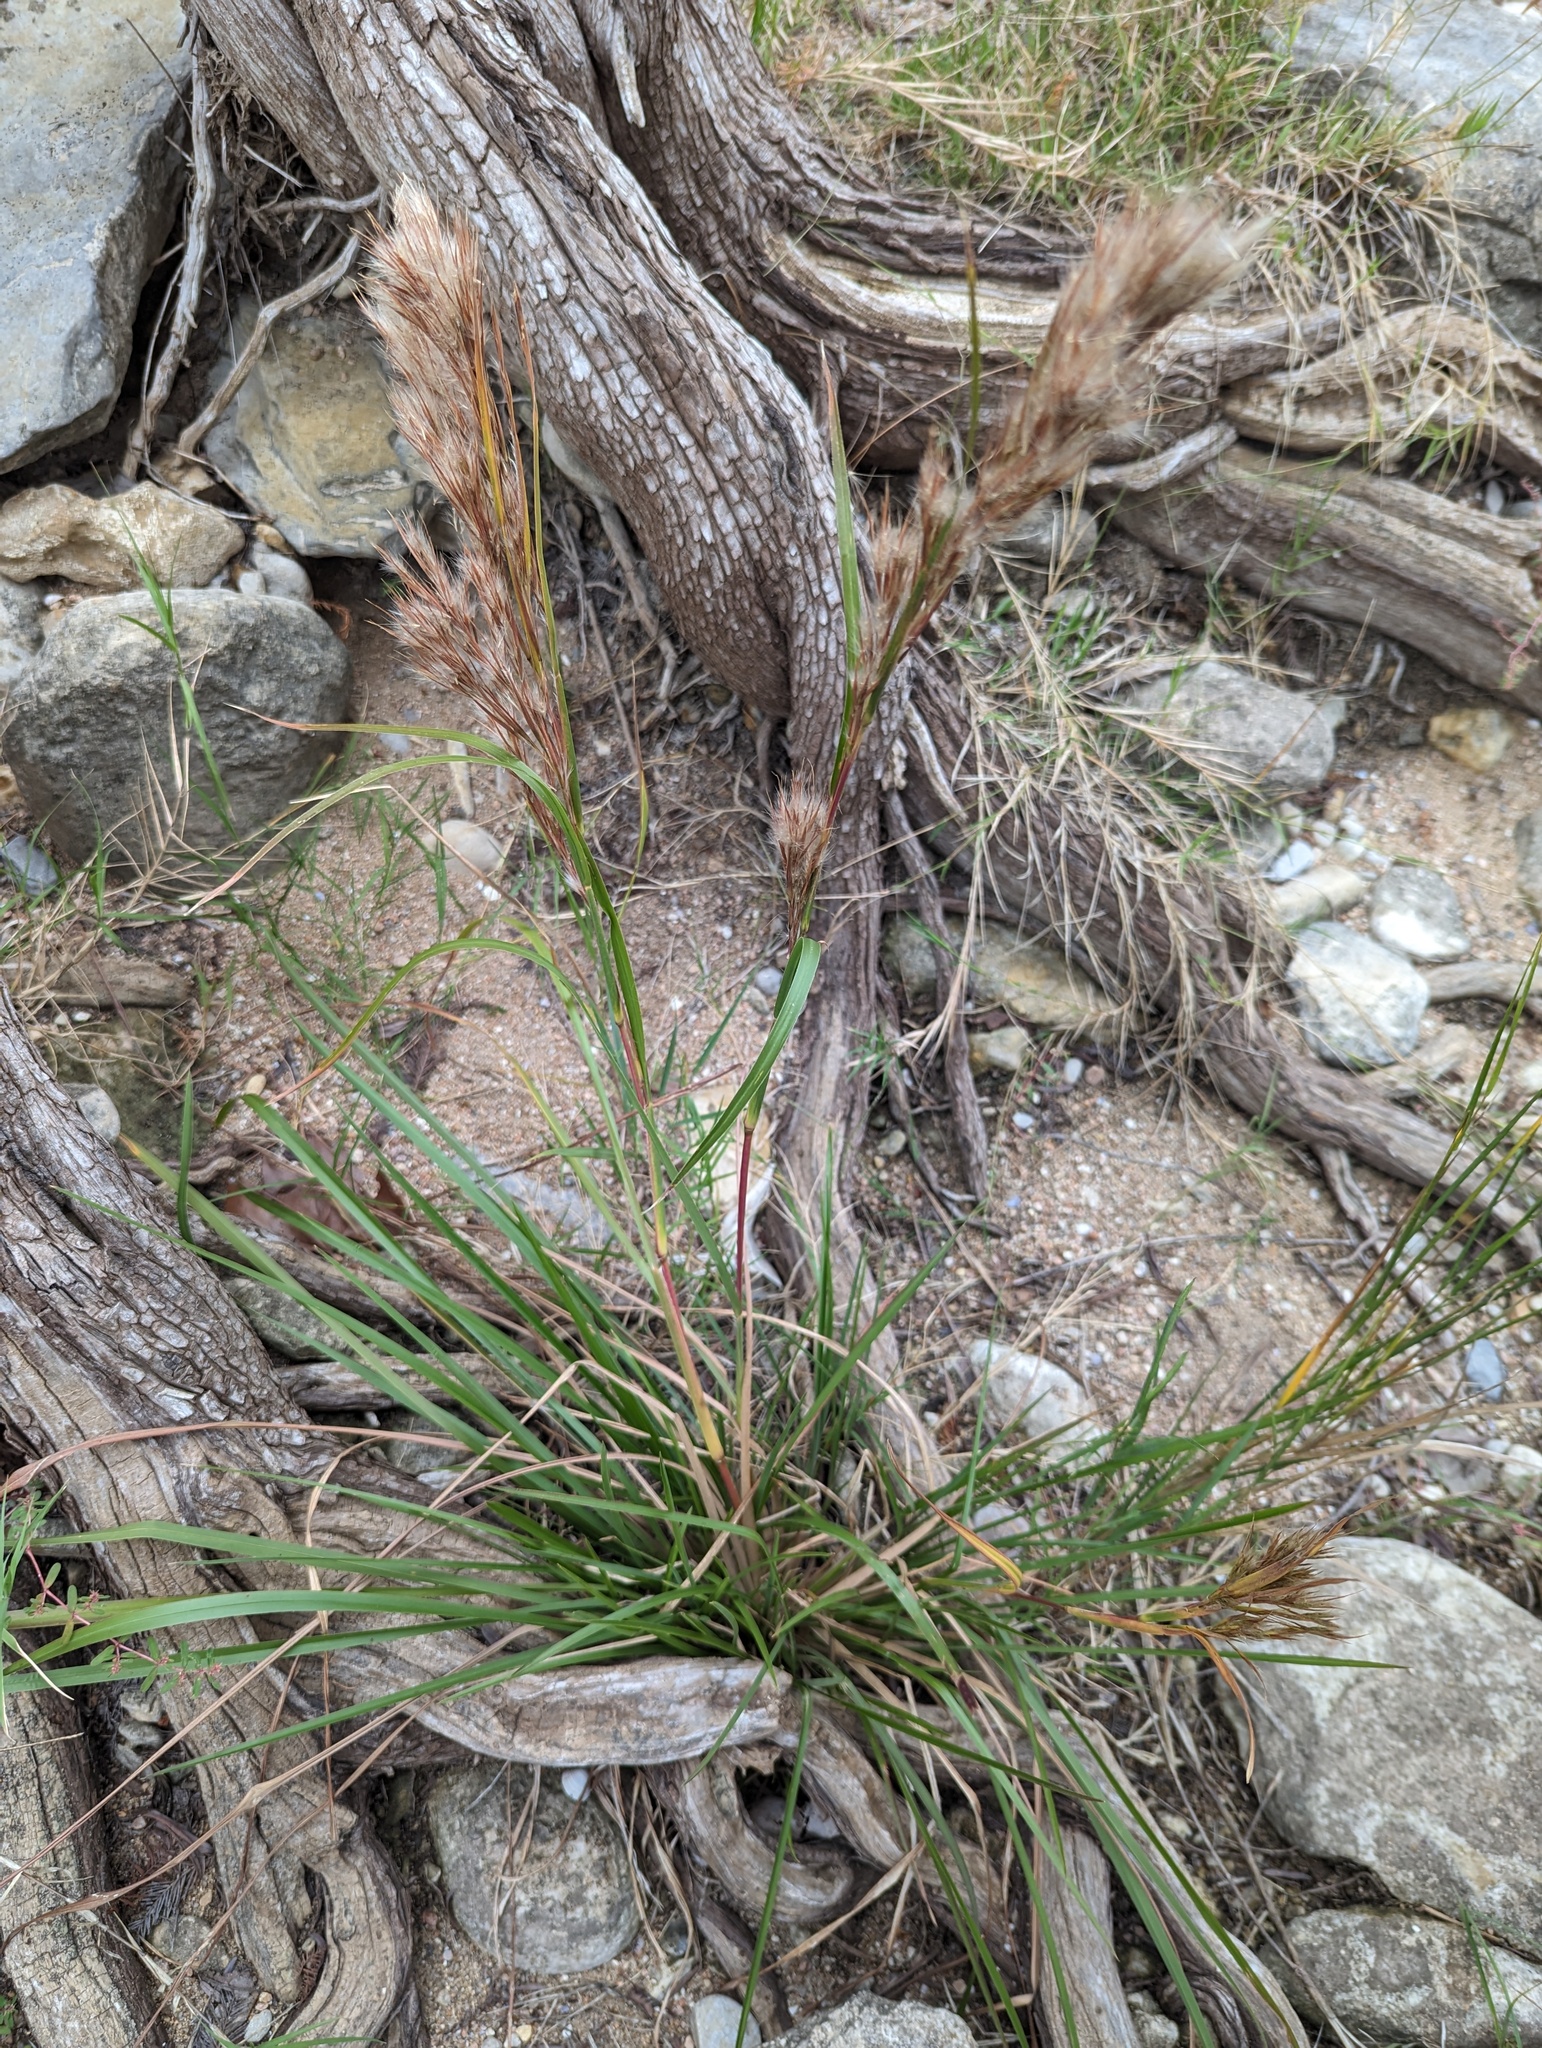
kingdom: Plantae
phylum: Tracheophyta
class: Liliopsida
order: Poales
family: Poaceae
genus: Andropogon
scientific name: Andropogon tenuispatheus
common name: Bushy bluestem
